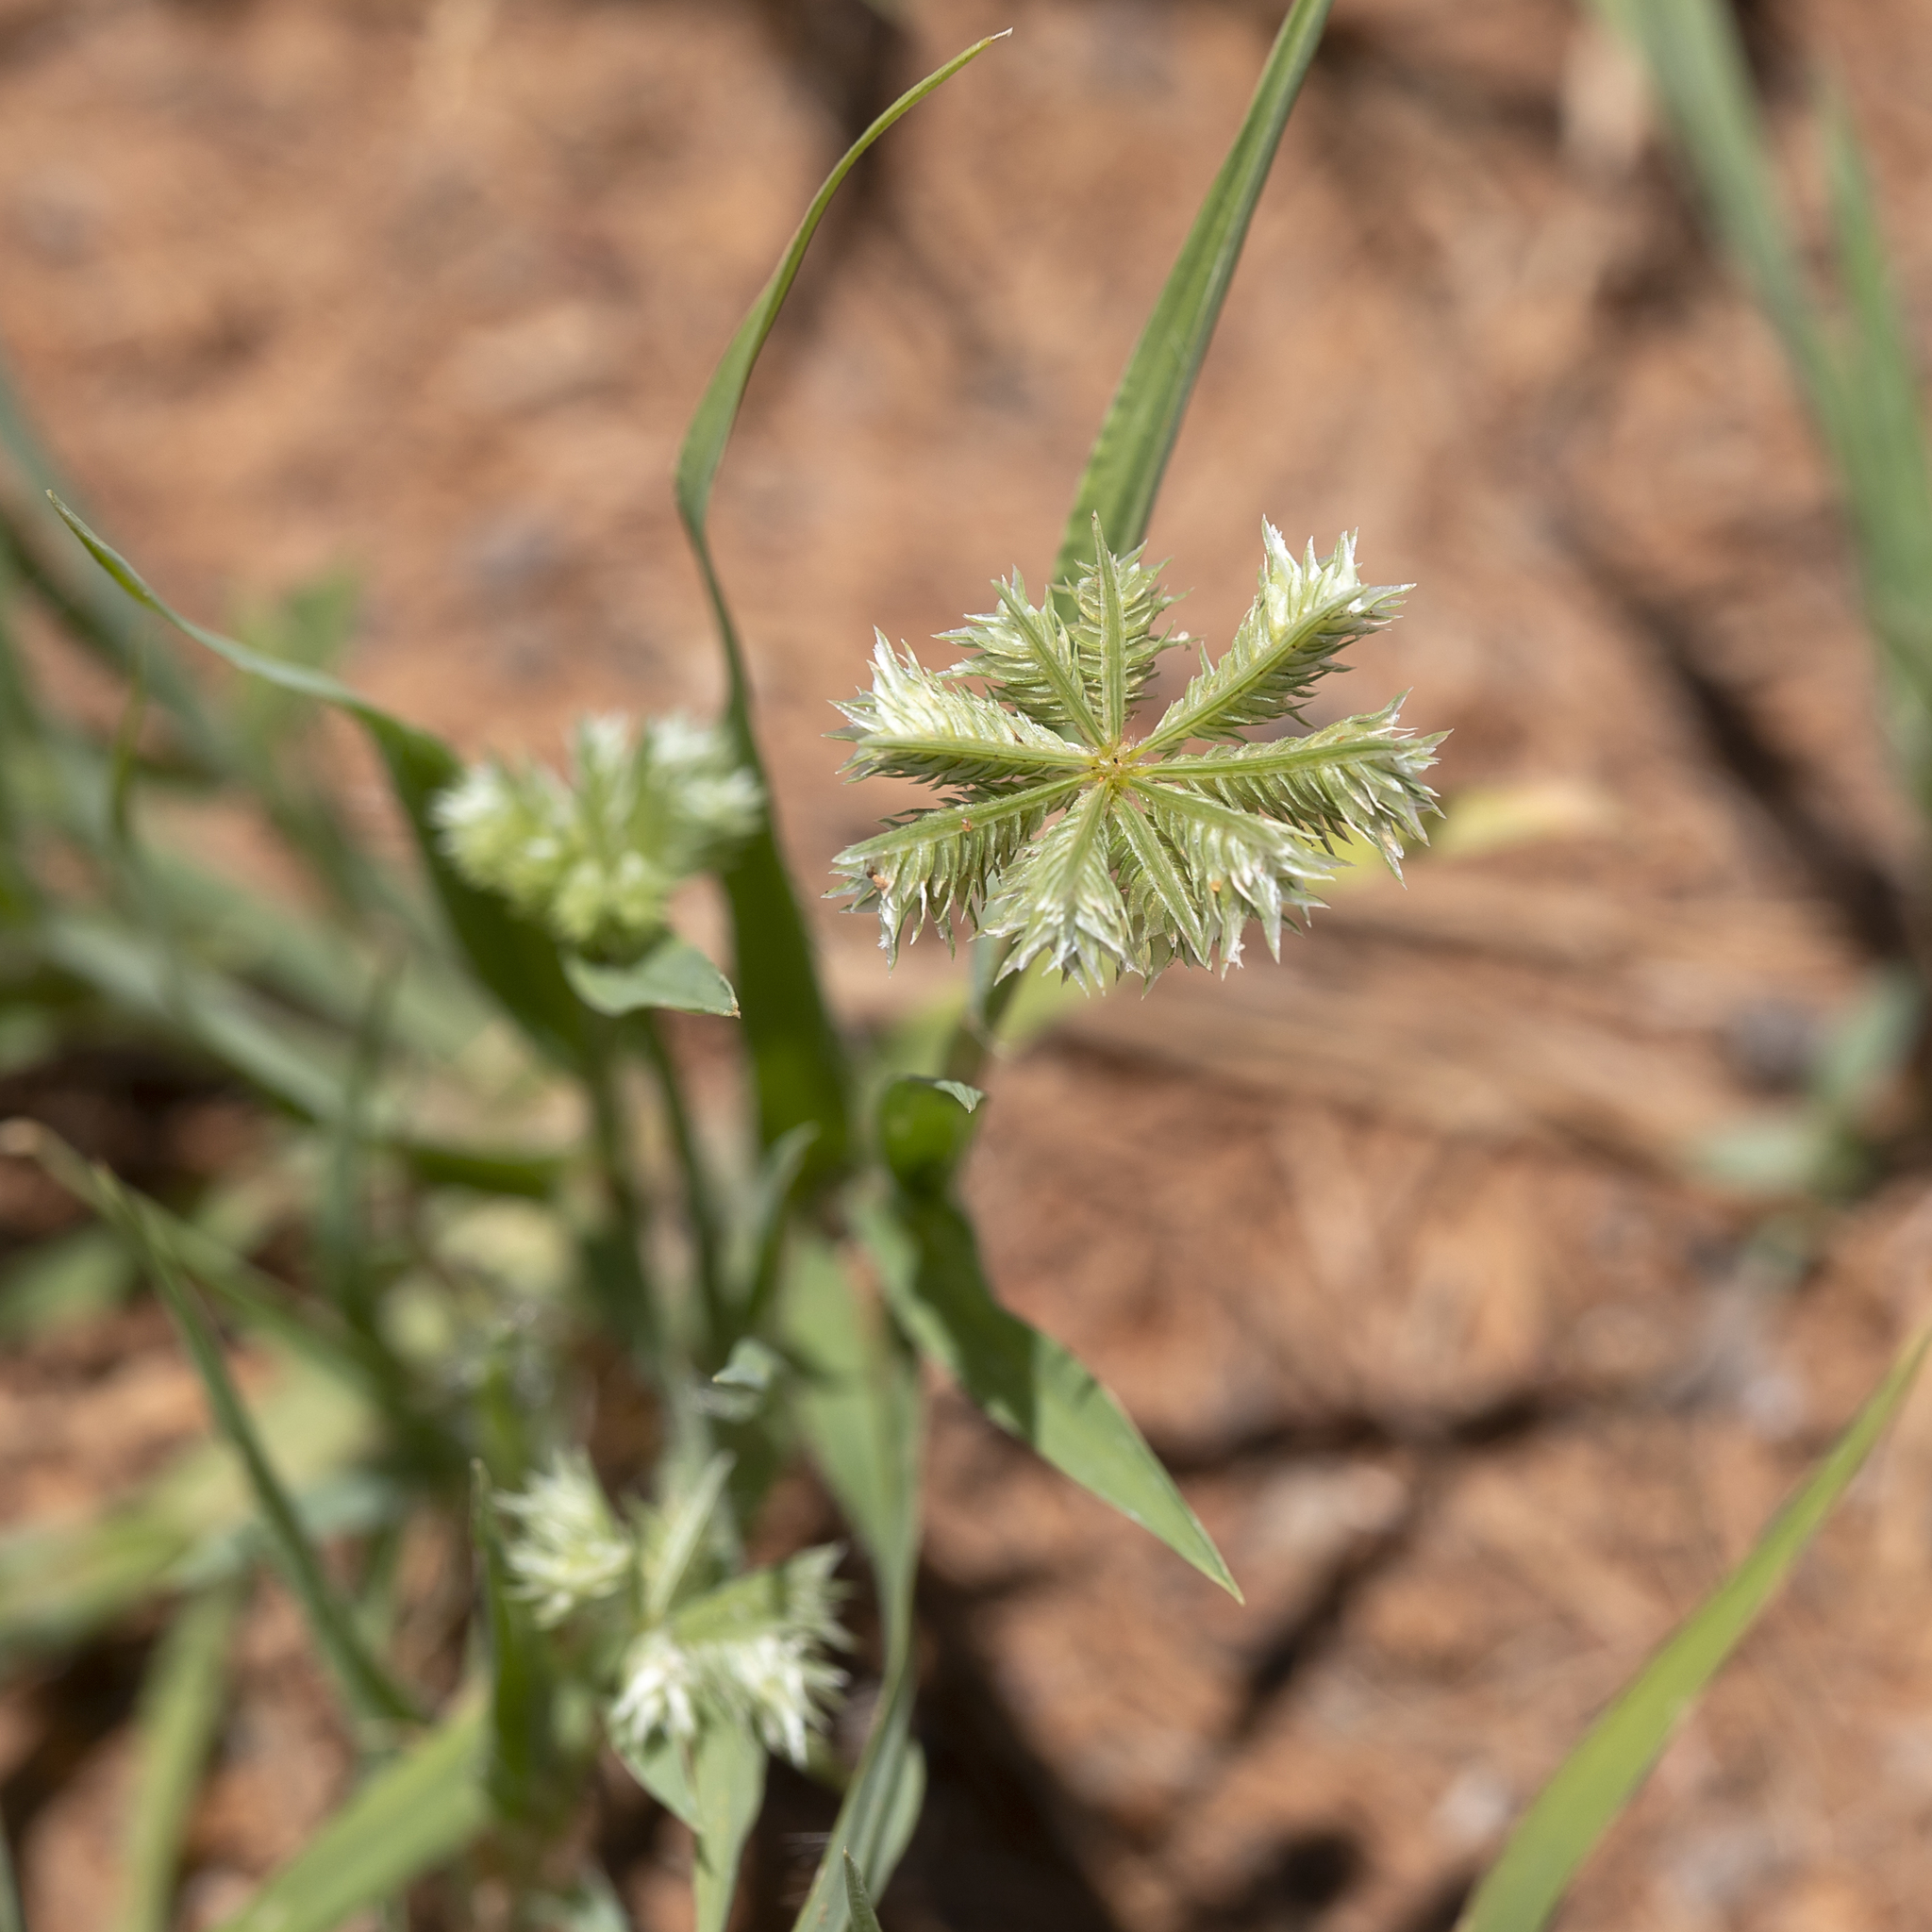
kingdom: Plantae
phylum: Tracheophyta
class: Liliopsida
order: Poales
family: Poaceae
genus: Dactyloctenium
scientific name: Dactyloctenium radulans
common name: Button-grass
